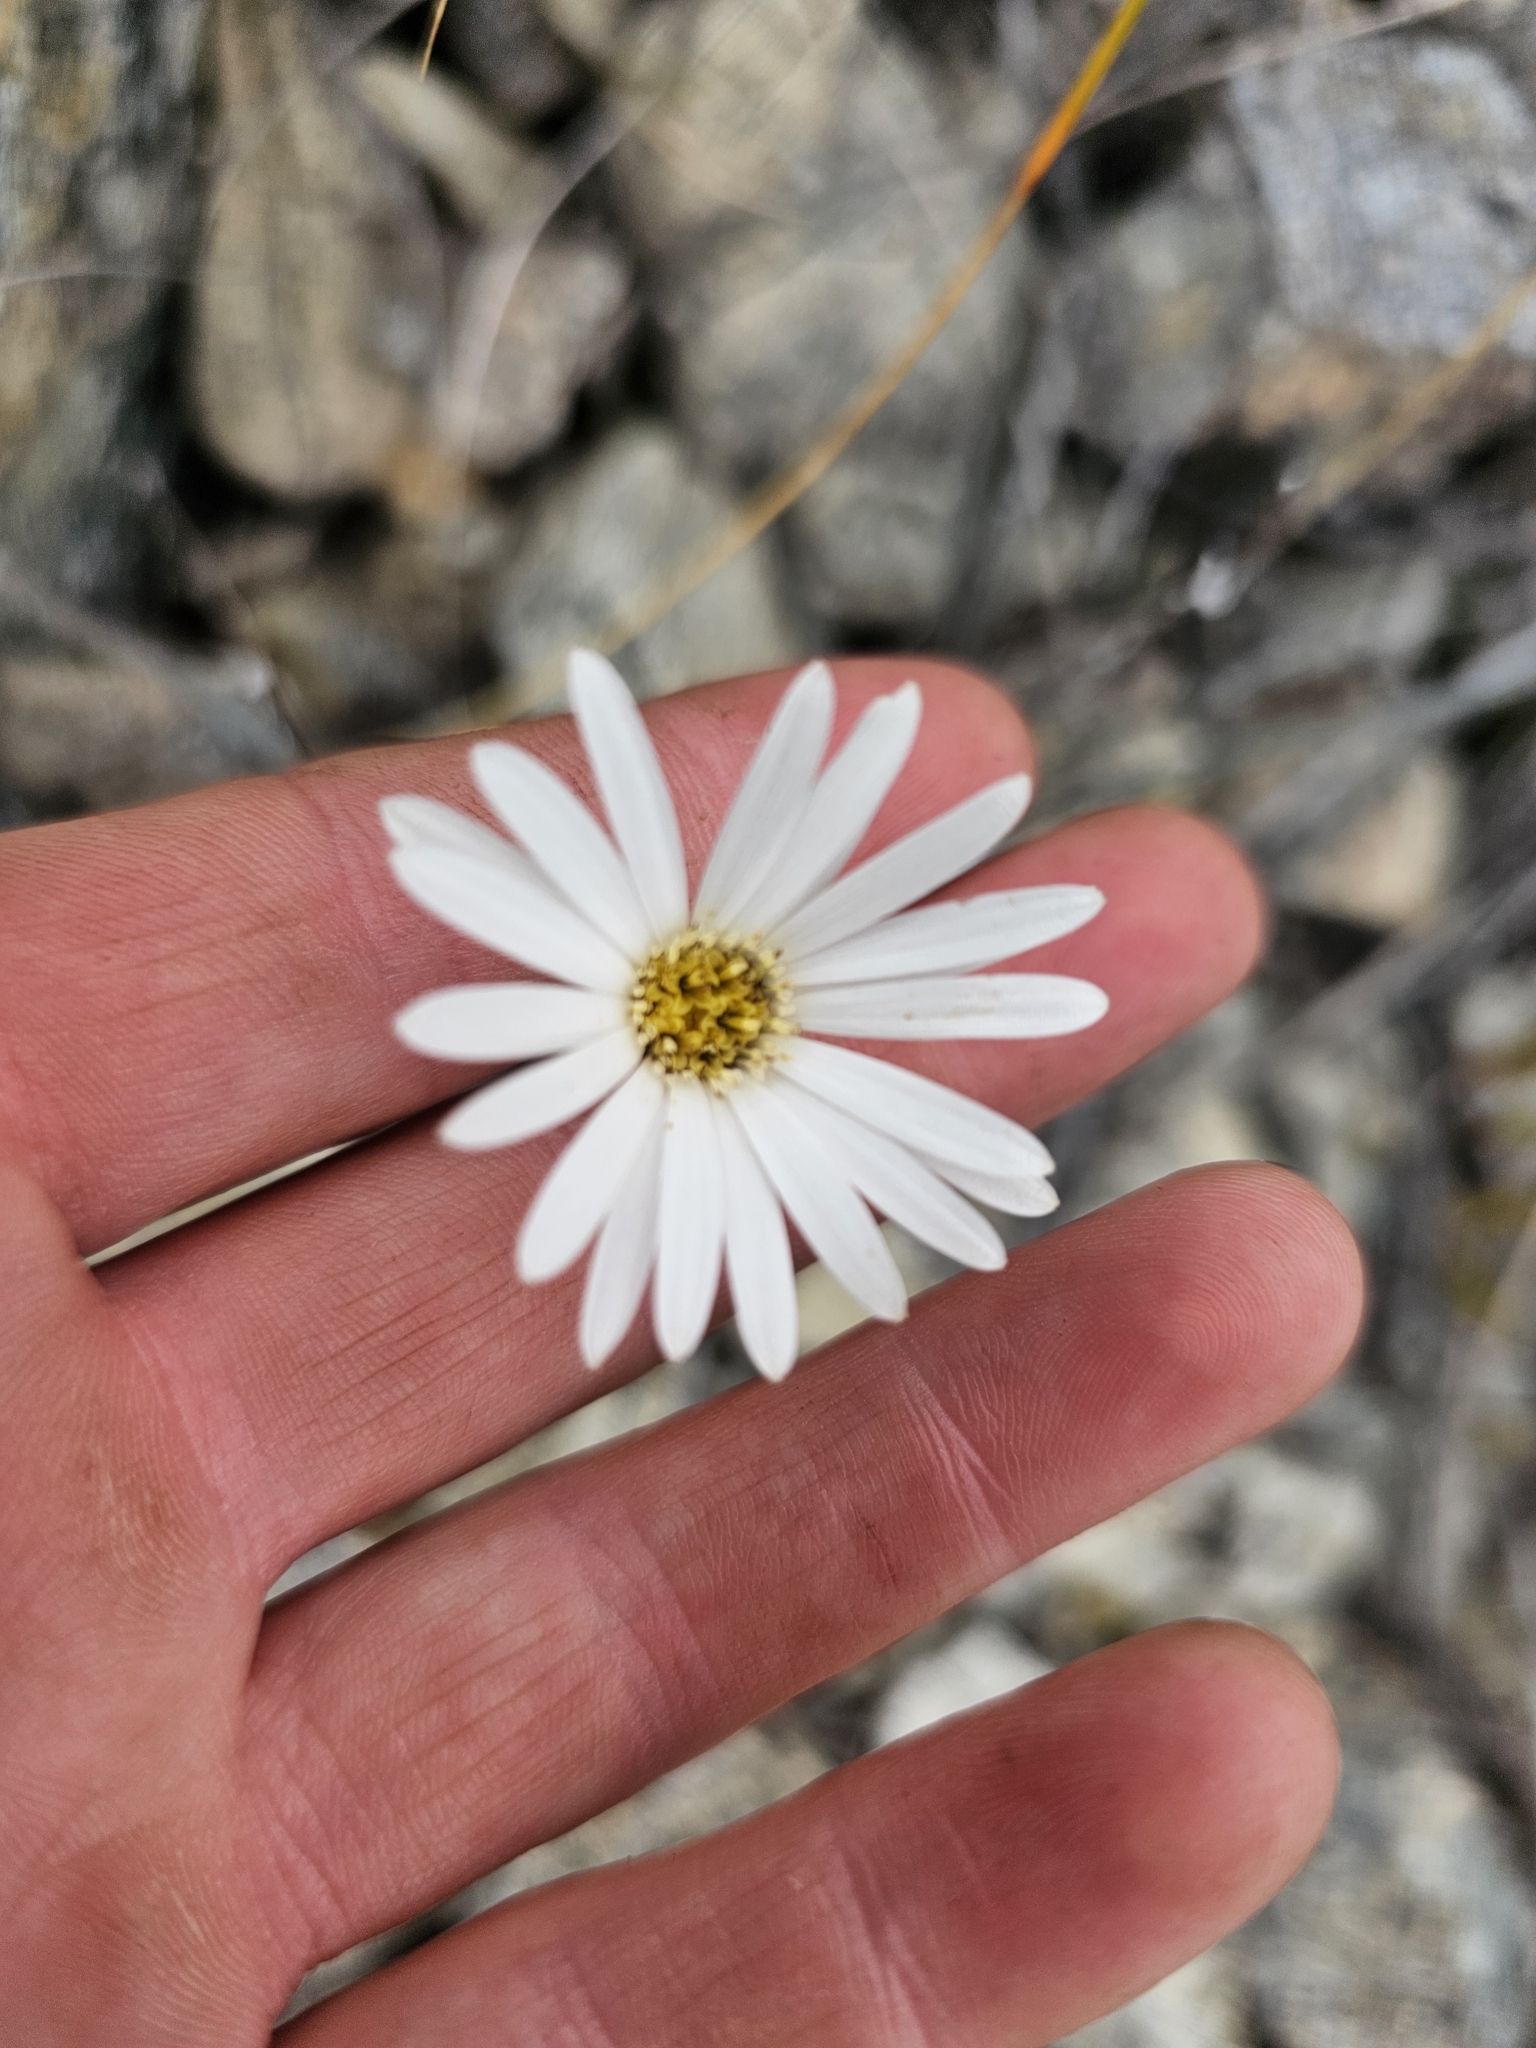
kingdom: Plantae
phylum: Tracheophyta
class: Magnoliopsida
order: Asterales
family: Asteraceae
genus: Celmisia
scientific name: Celmisia gracilenta
